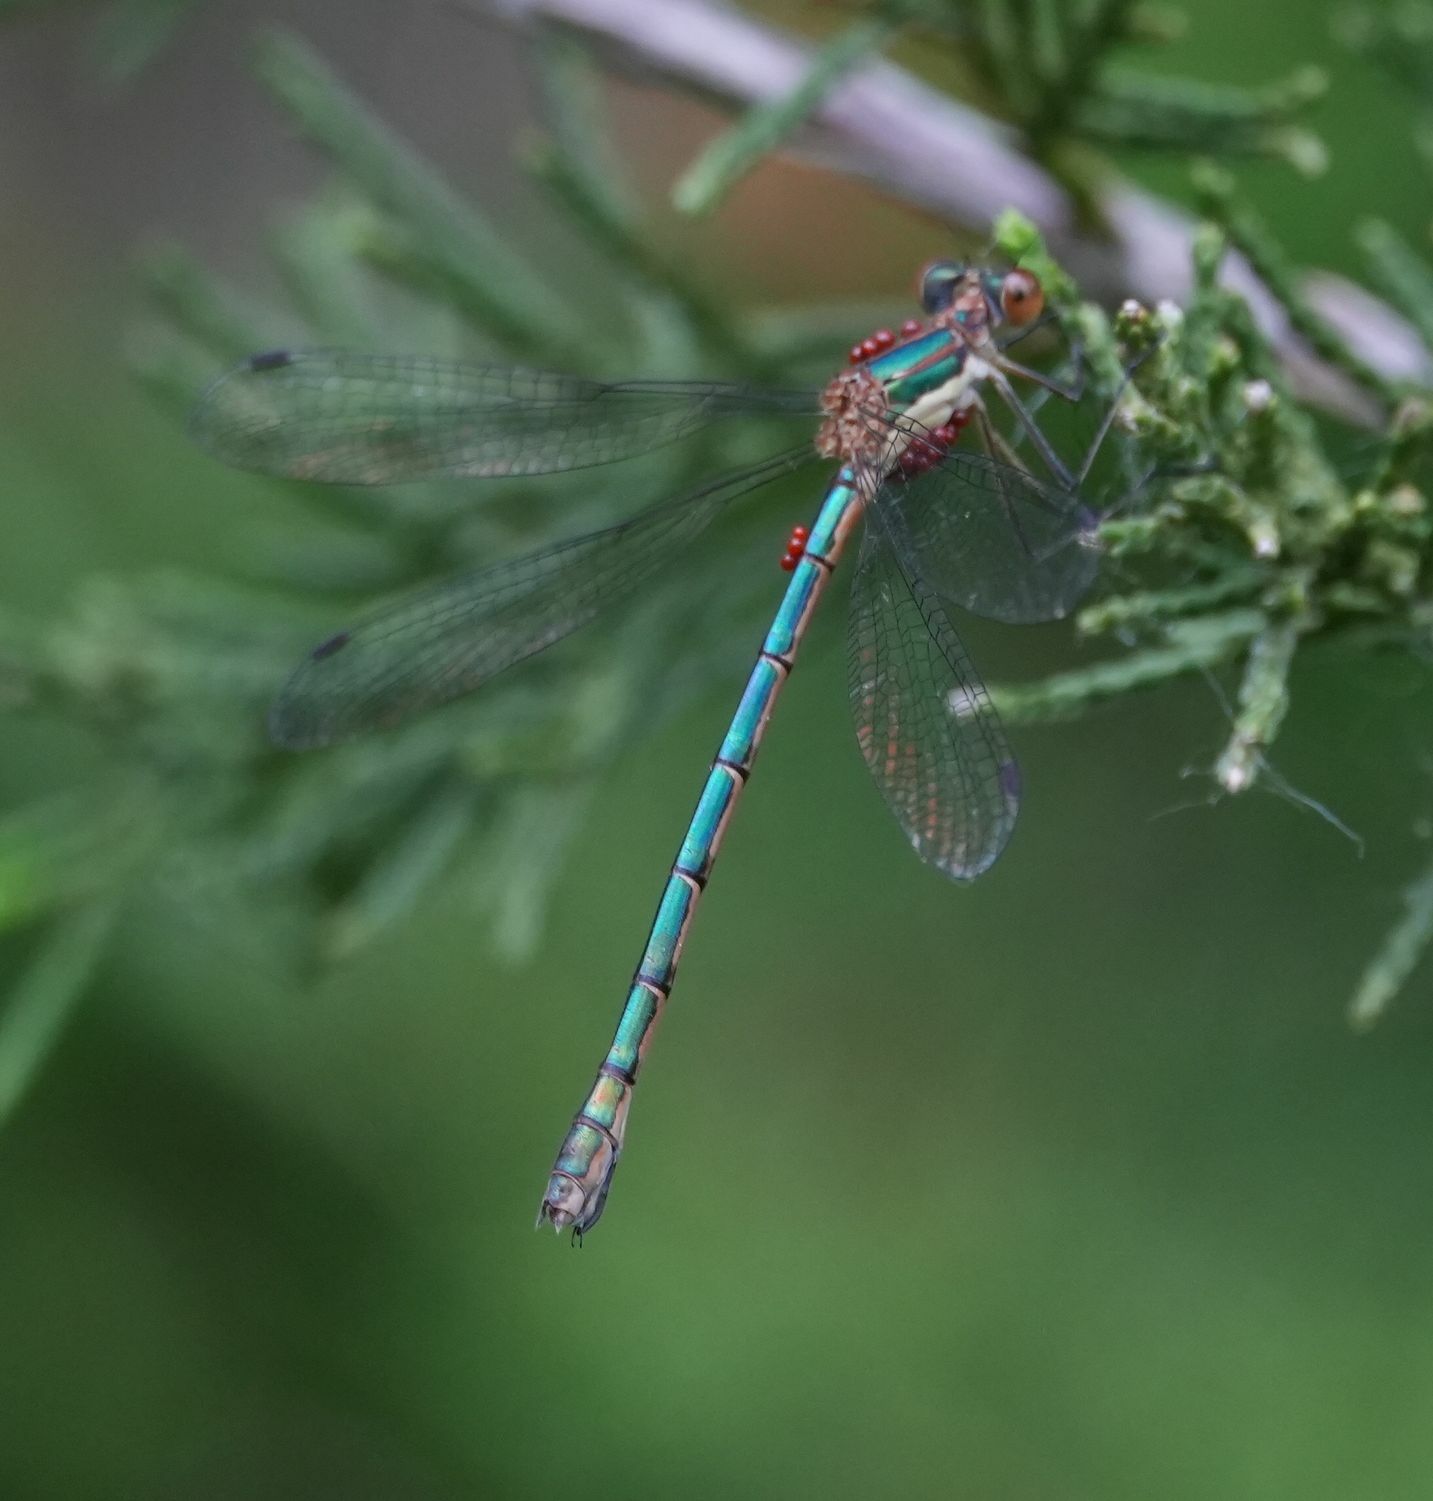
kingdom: Animalia
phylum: Arthropoda
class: Insecta
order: Odonata
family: Lestidae
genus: Lestes
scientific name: Lestes dryas
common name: Scarce emerald damselfly
